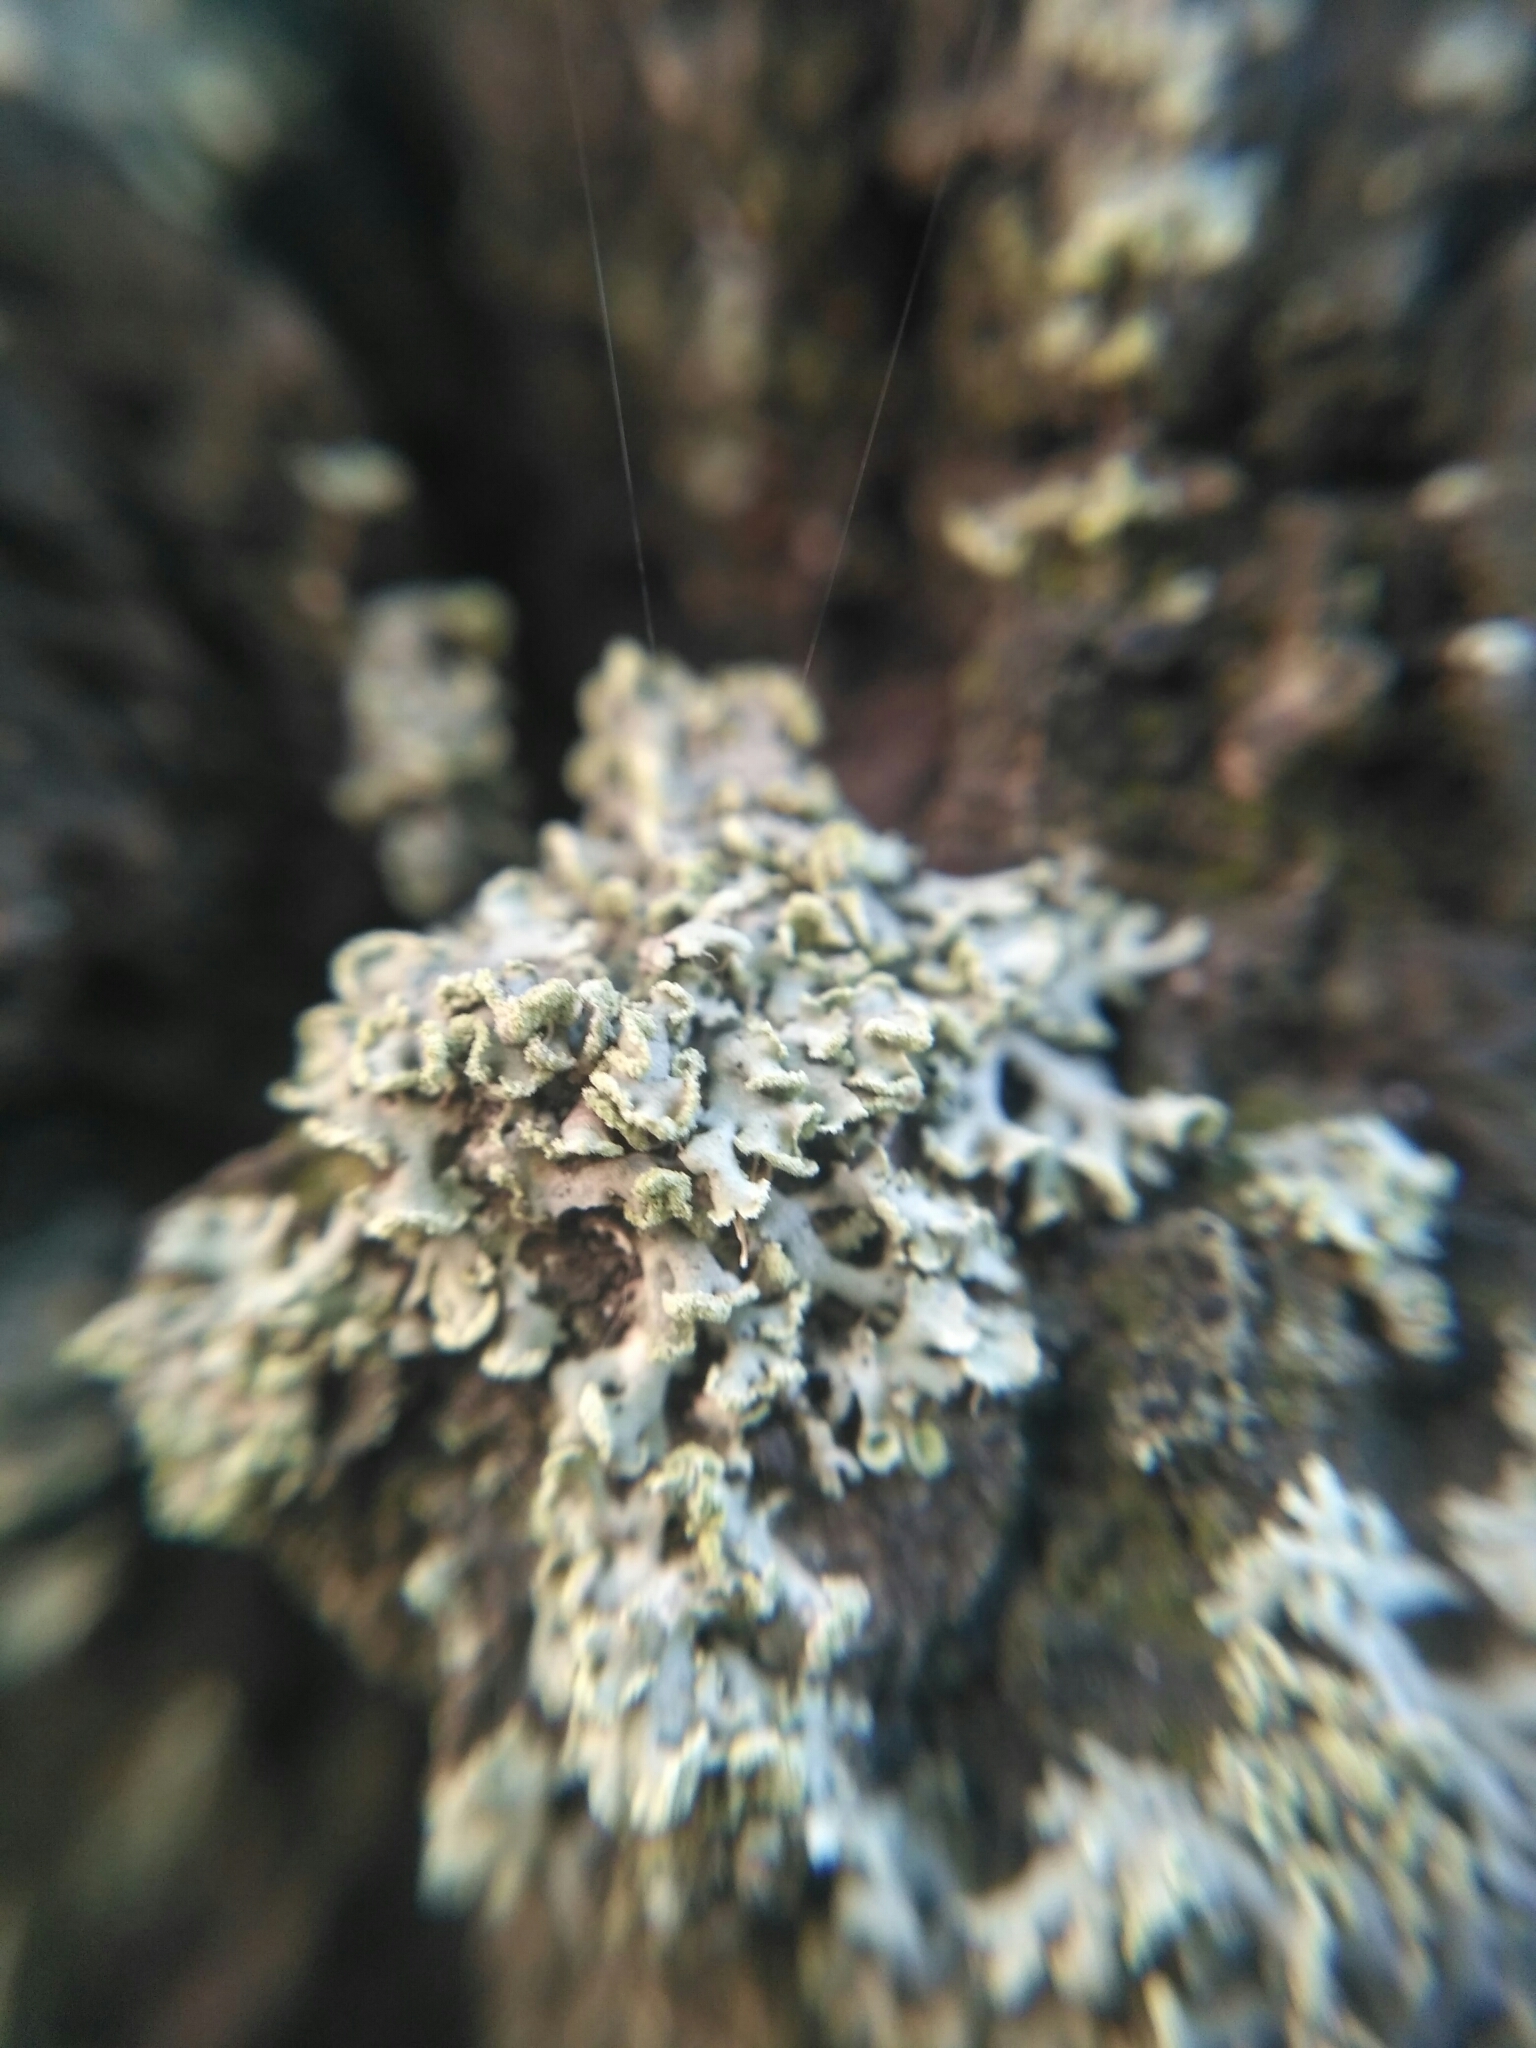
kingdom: Fungi
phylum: Ascomycota
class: Lecanoromycetes
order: Caliciales
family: Physciaceae
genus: Physcia
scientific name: Physcia tenella
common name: Fringed rosette lichen
